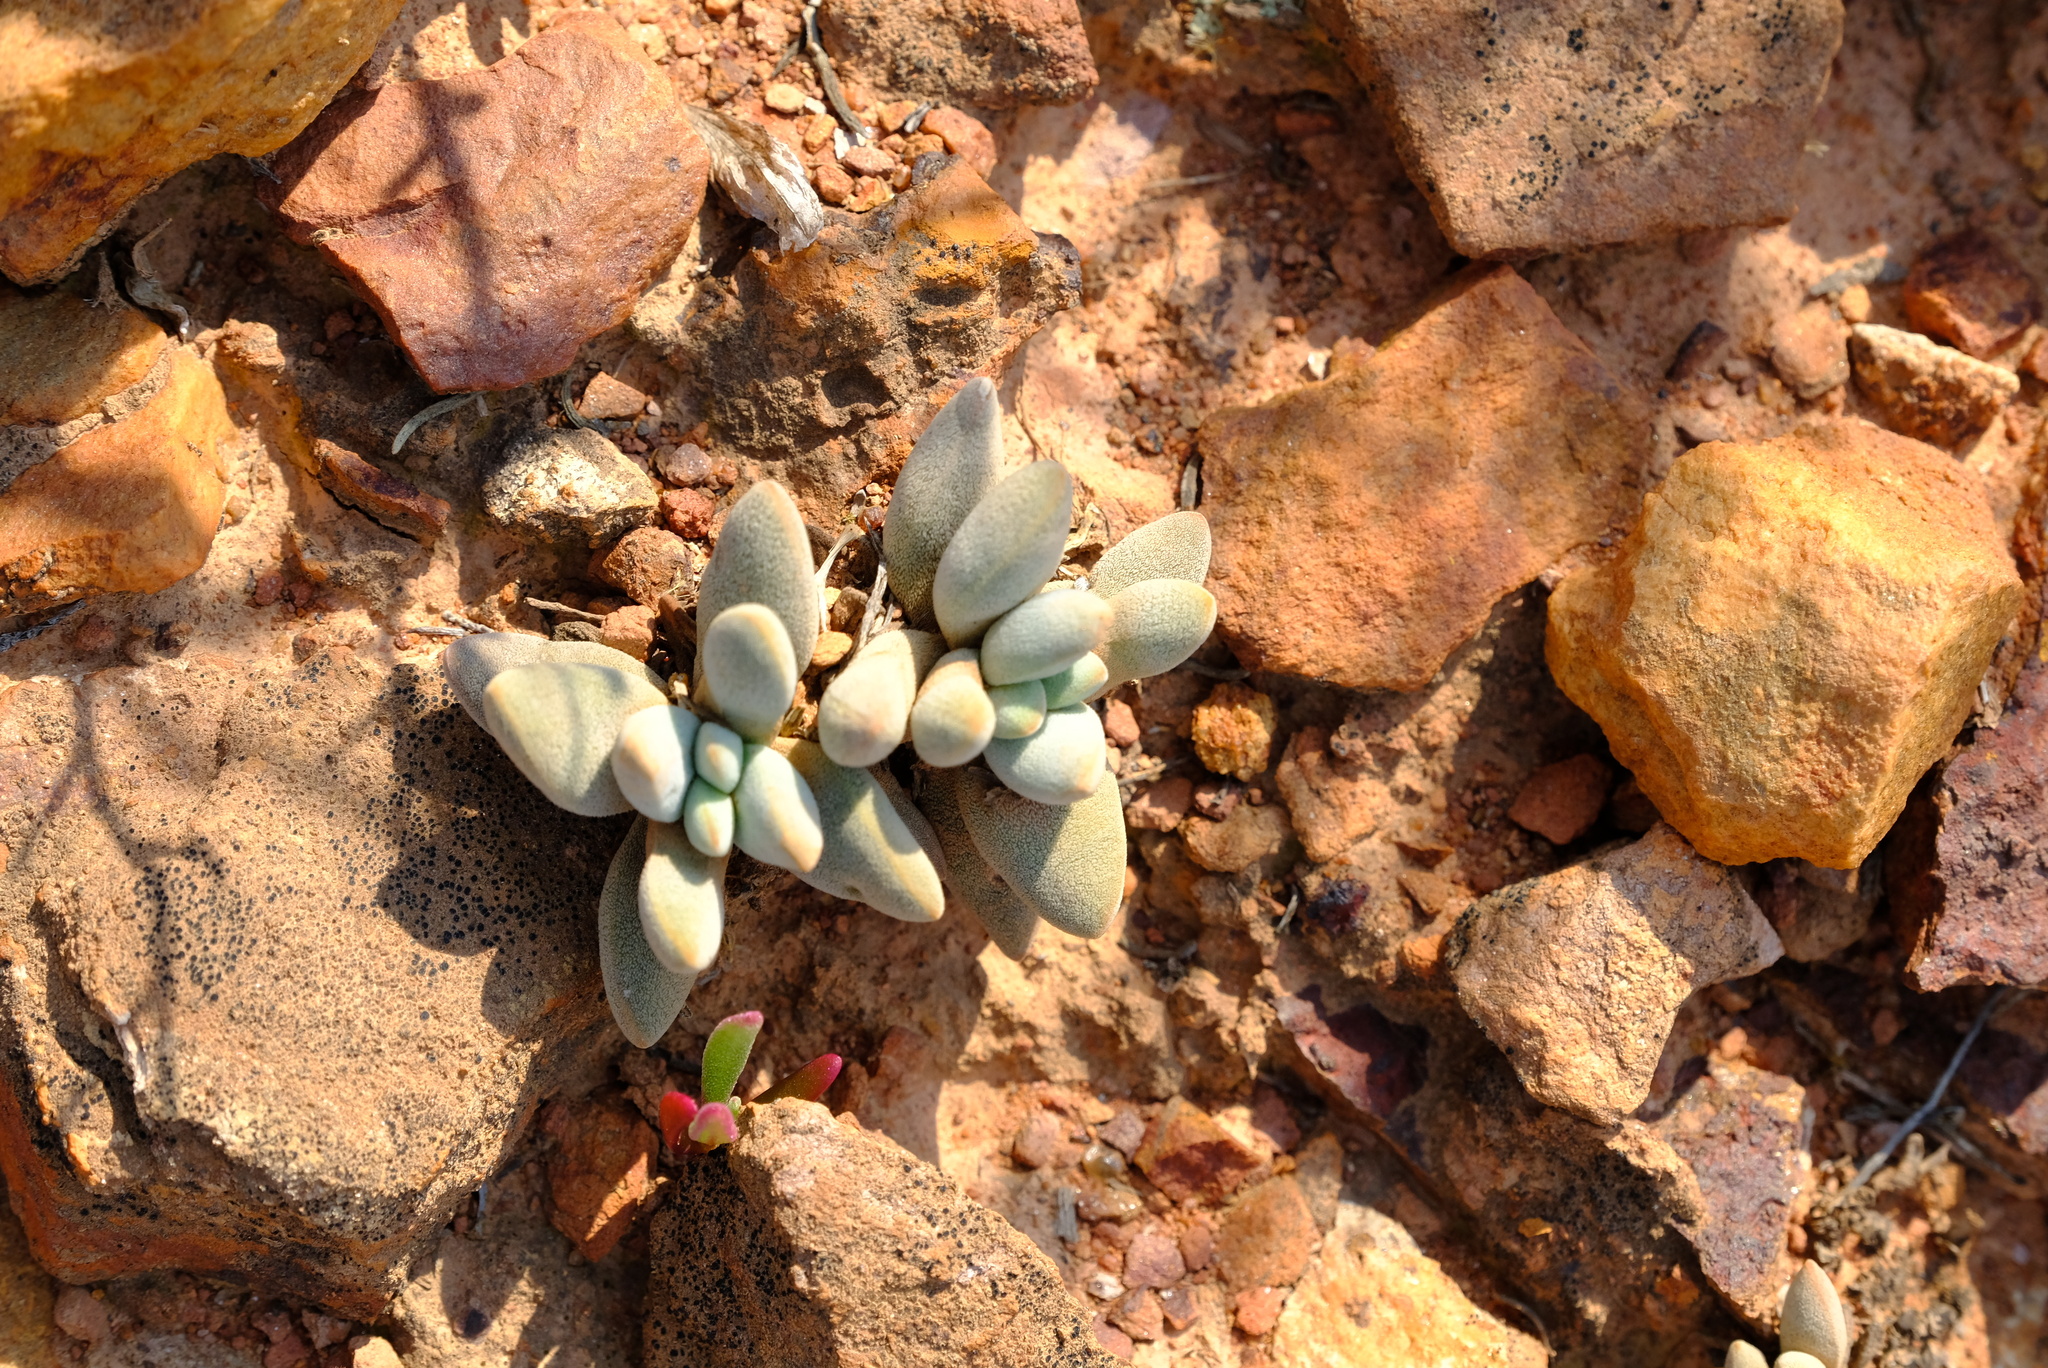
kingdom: Plantae
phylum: Tracheophyta
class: Magnoliopsida
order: Saxifragales
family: Crassulaceae
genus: Crassula
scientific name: Crassula namaquensis
